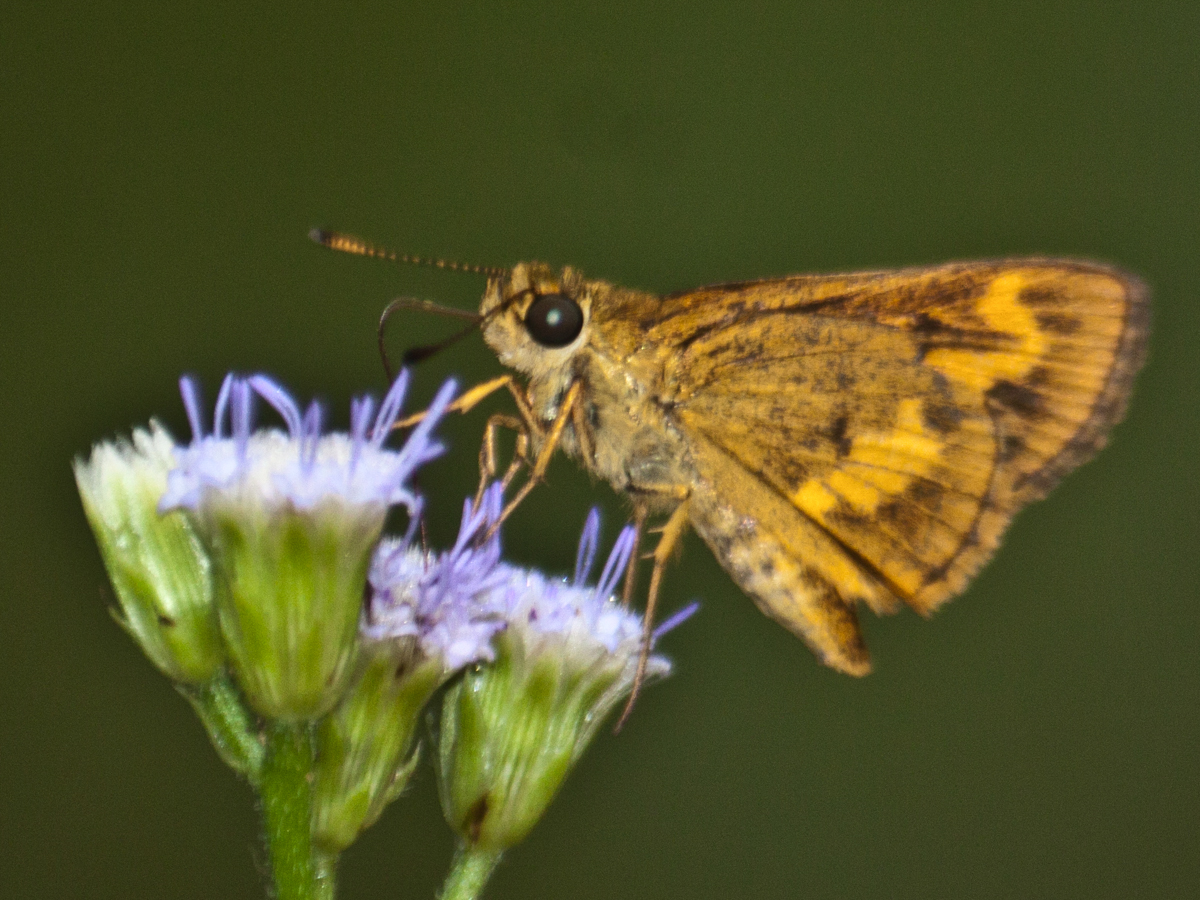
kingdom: Animalia
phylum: Arthropoda
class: Insecta
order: Lepidoptera
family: Hesperiidae
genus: Oriens
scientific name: Oriens gola
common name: Common dartlet
